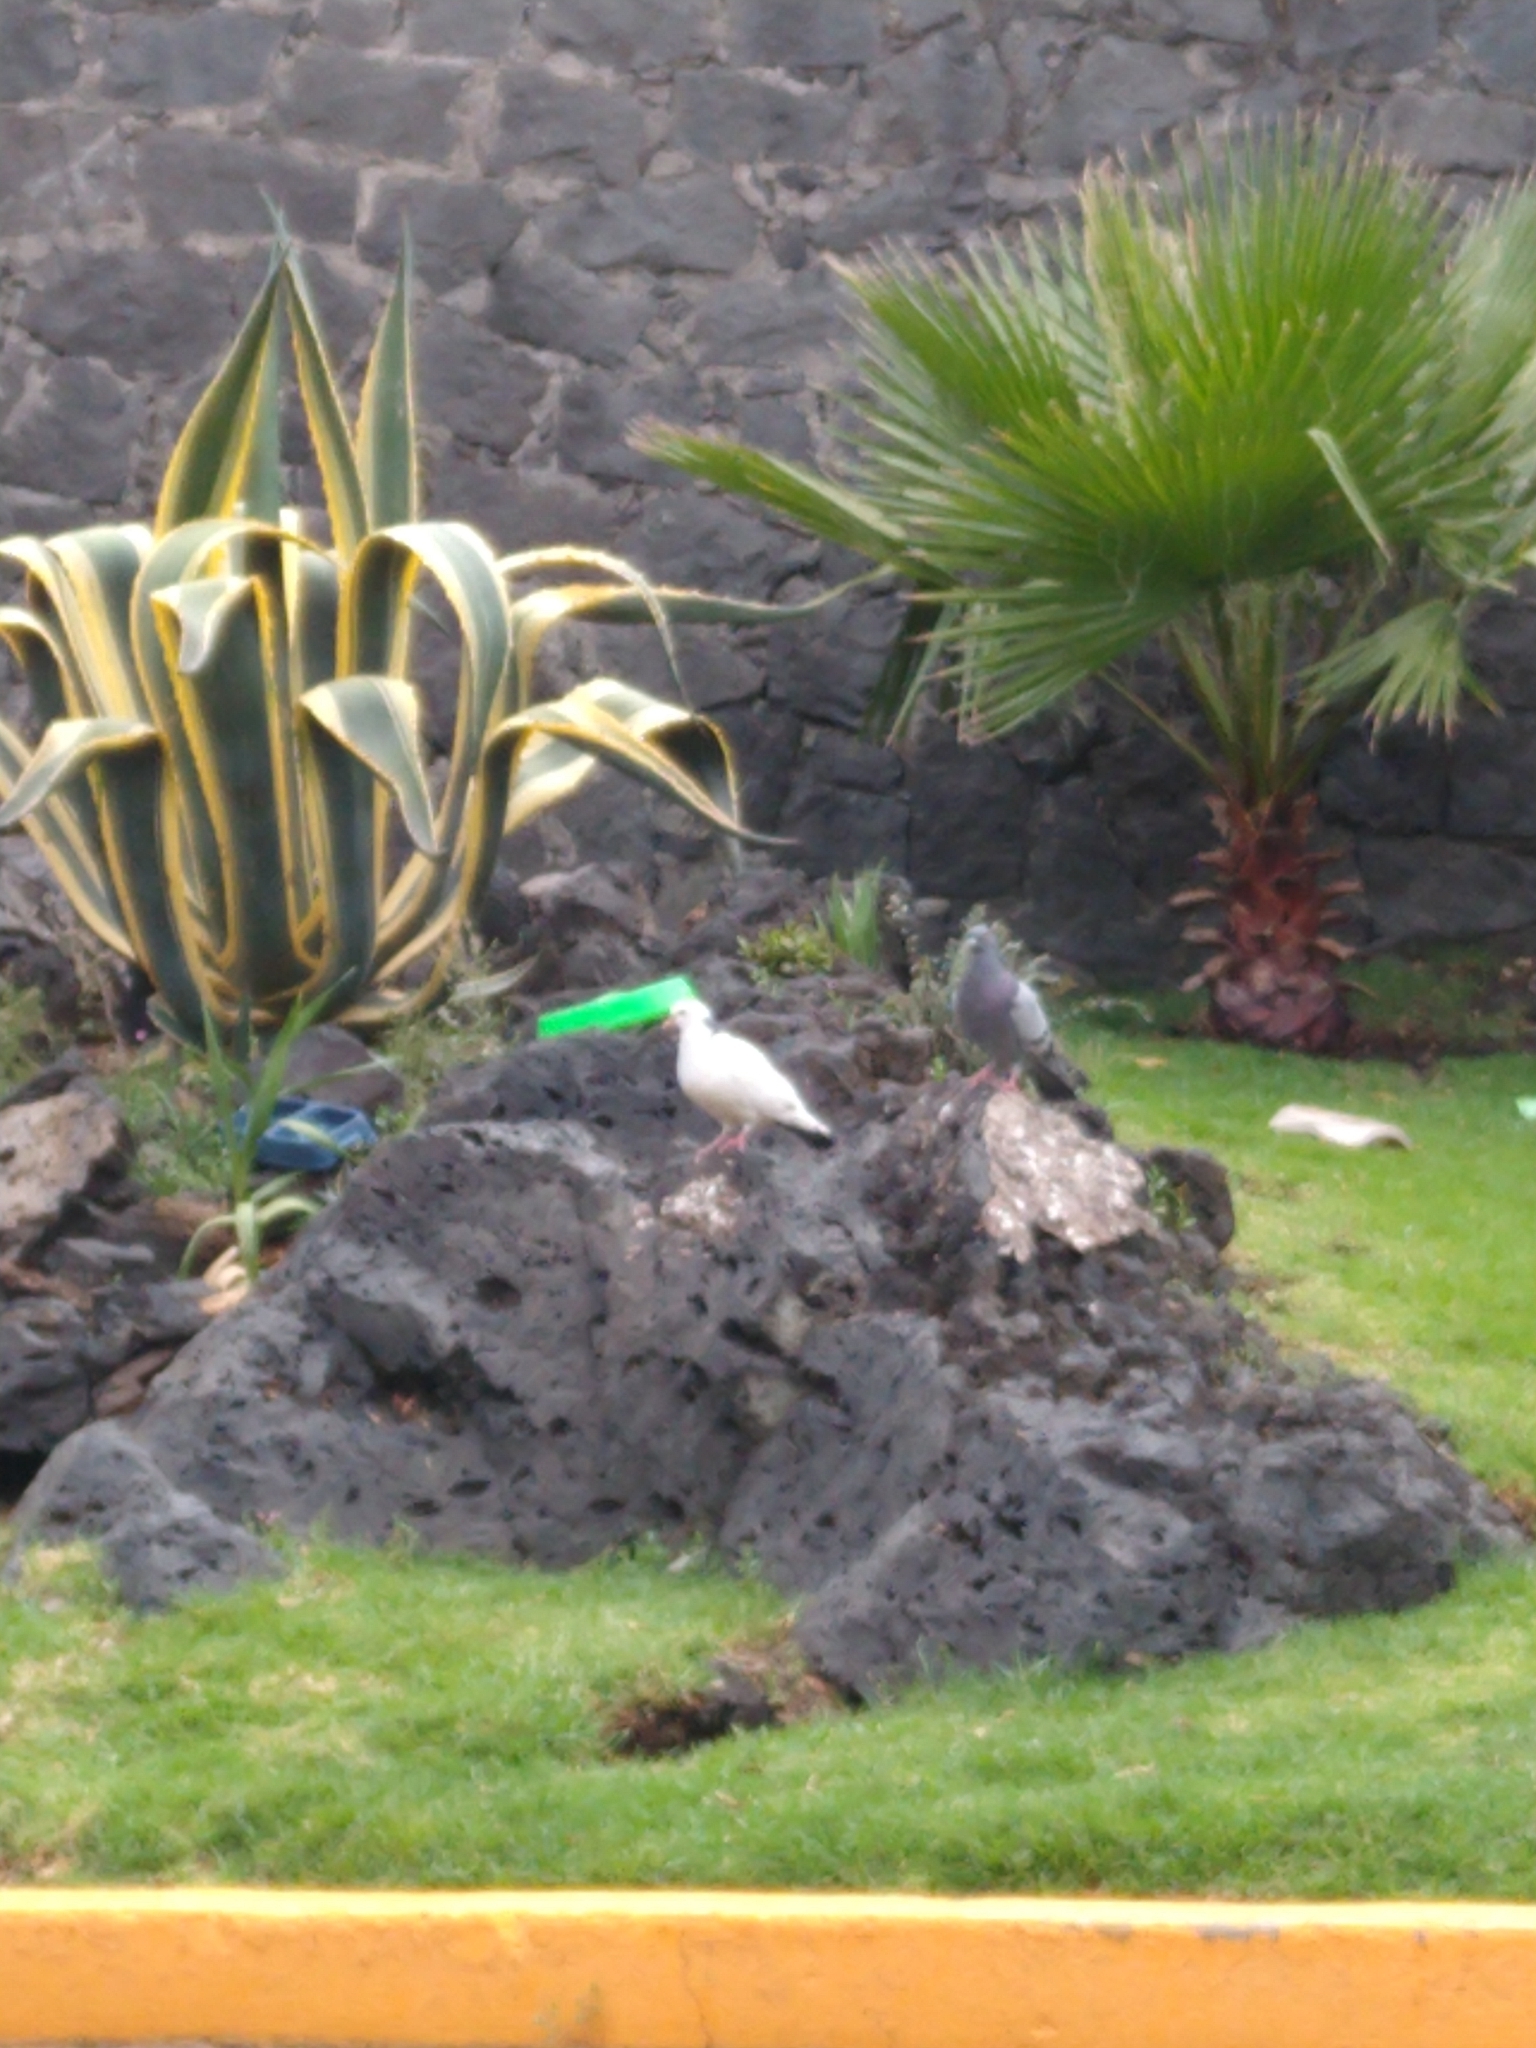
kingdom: Animalia
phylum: Chordata
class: Aves
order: Columbiformes
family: Columbidae
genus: Columba
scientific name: Columba livia
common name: Rock pigeon
